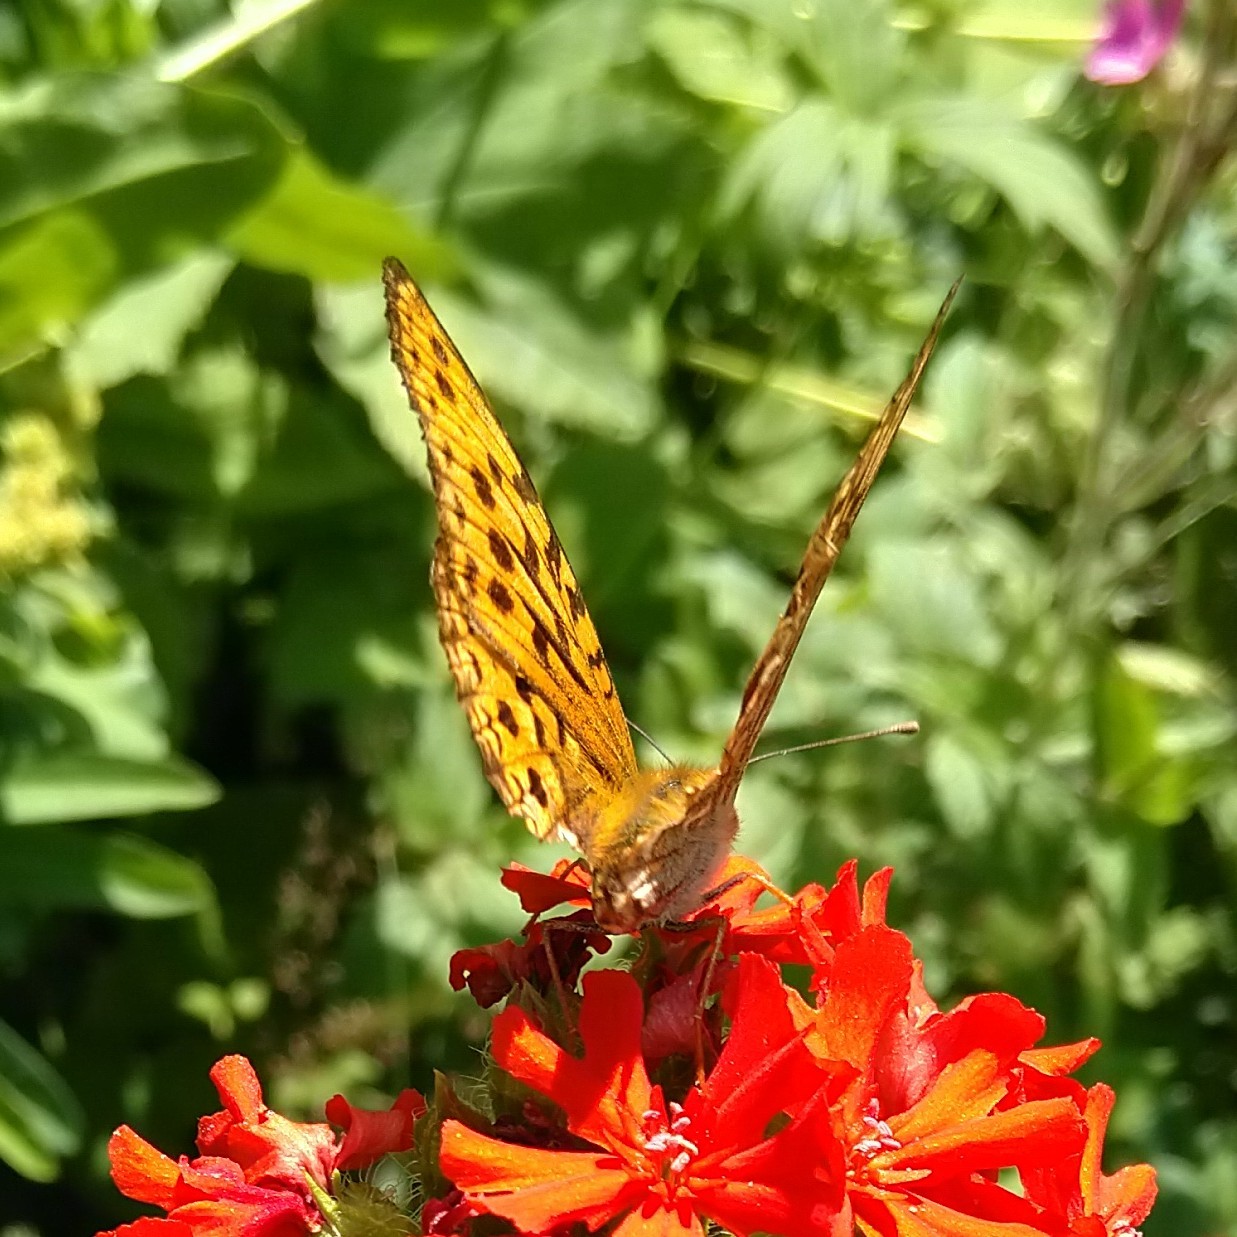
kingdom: Animalia
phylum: Arthropoda
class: Insecta
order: Lepidoptera
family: Nymphalidae
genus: Fabriciana
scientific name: Fabriciana adippe
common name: High brown fritillary
